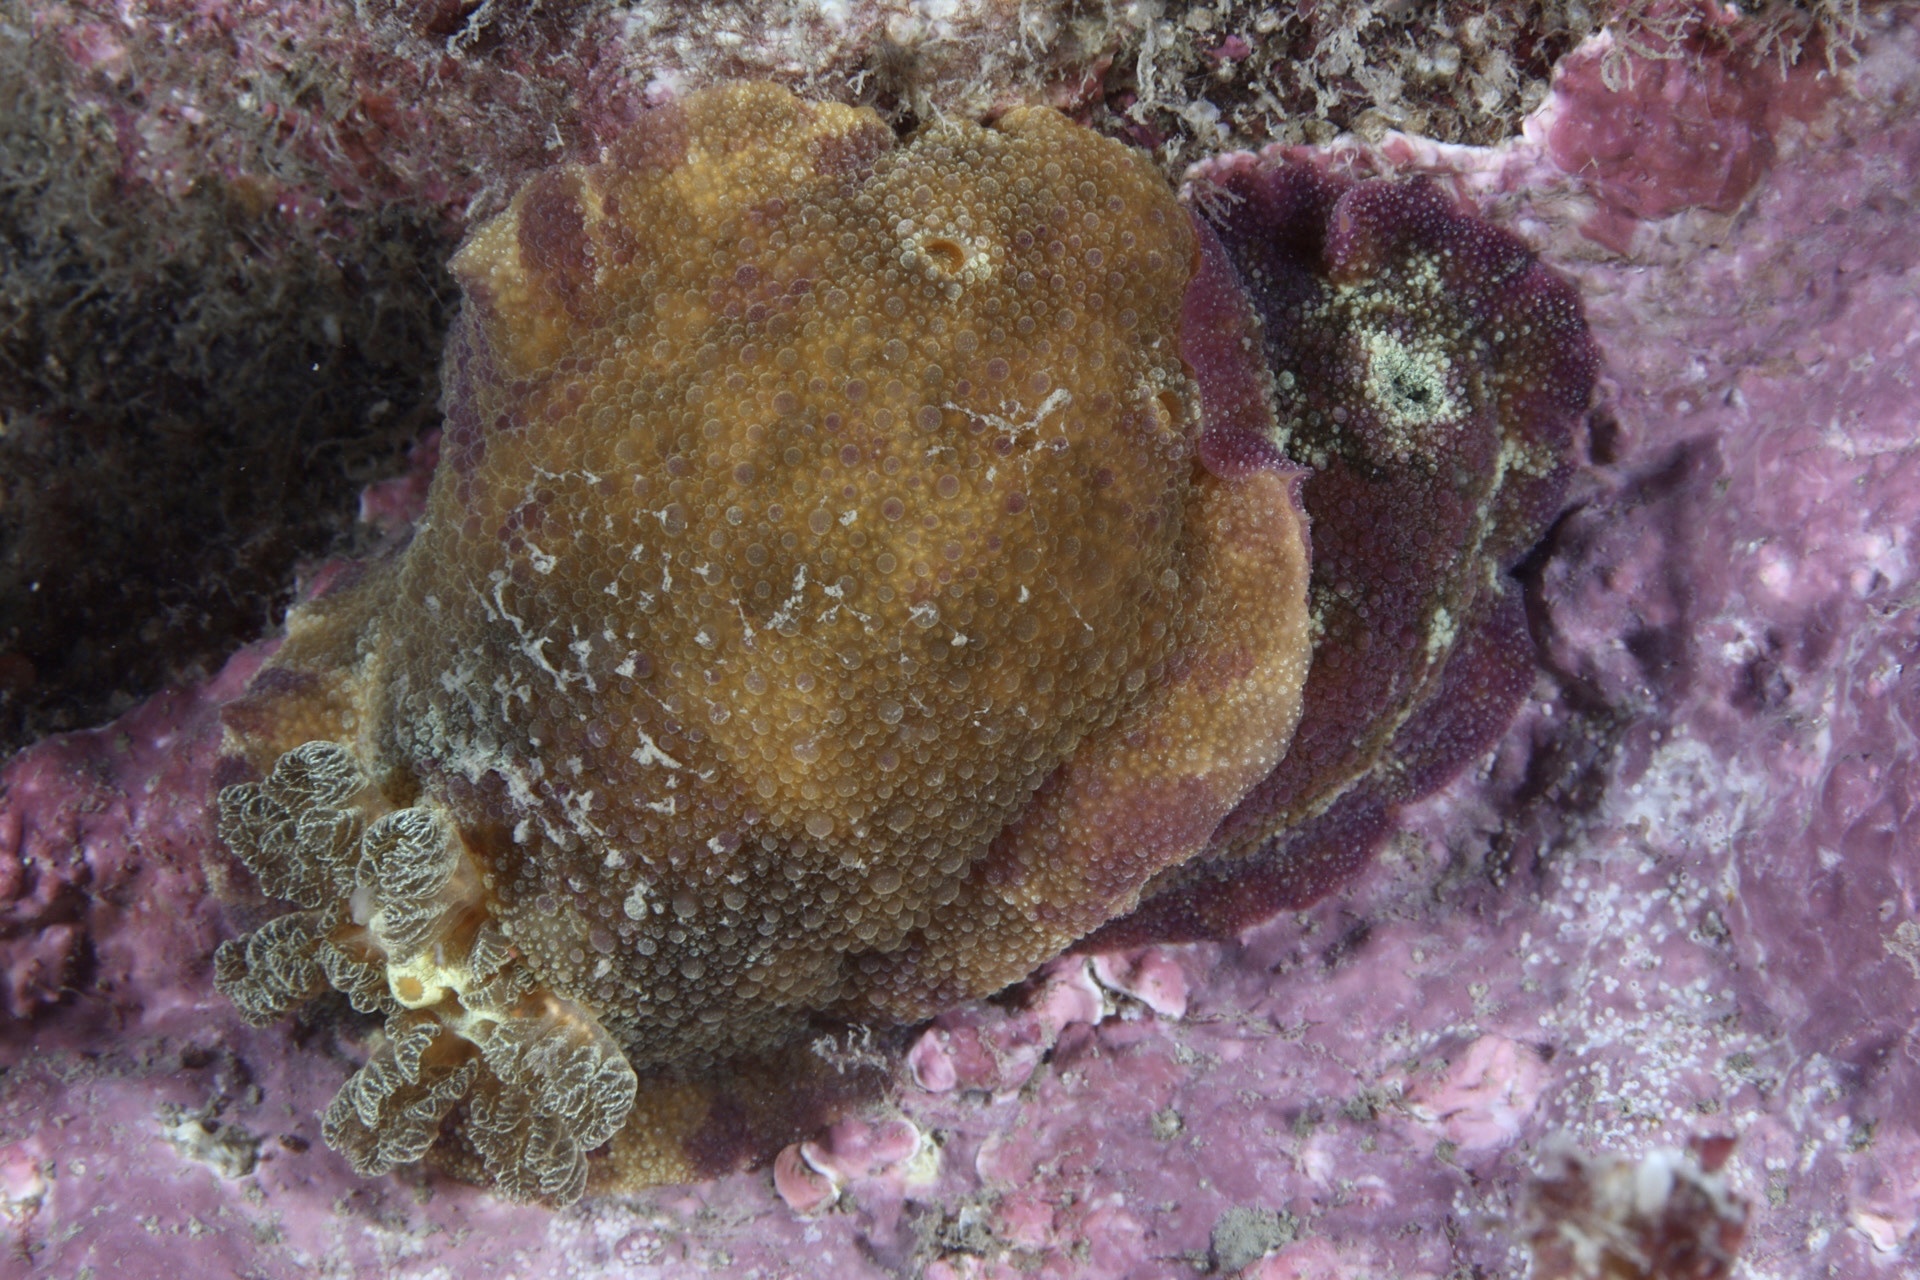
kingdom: Animalia
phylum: Mollusca
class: Gastropoda
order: Nudibranchia
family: Dorididae
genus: Doris
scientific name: Doris pseudoargus
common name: Sea lemon
